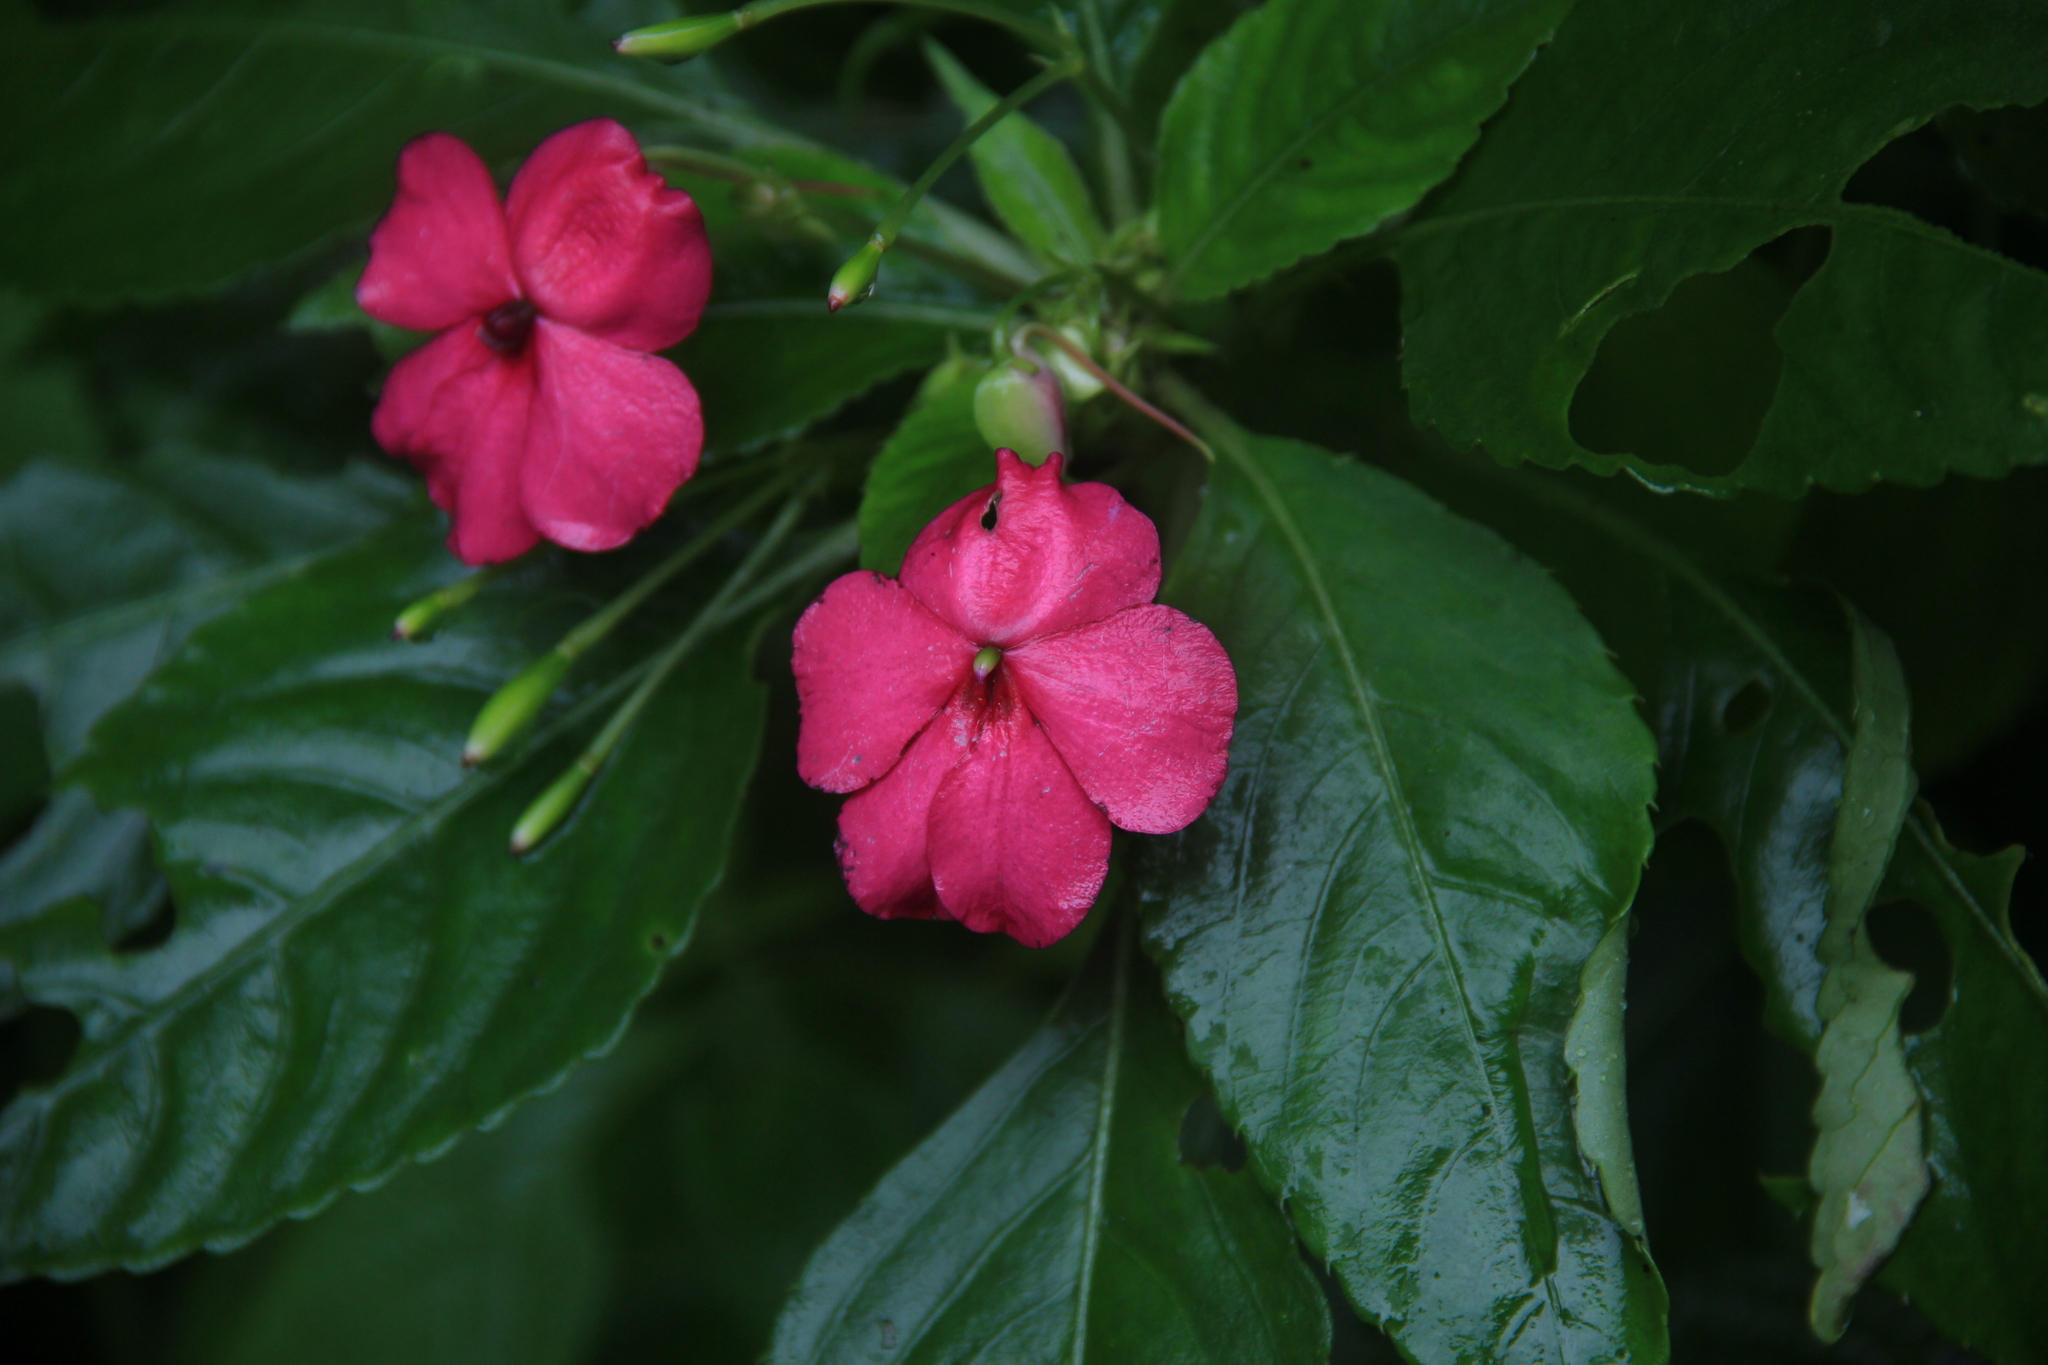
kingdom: Plantae
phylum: Tracheophyta
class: Magnoliopsida
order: Ericales
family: Balsaminaceae
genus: Impatiens
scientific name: Impatiens walleriana
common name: Buzzy lizzy
